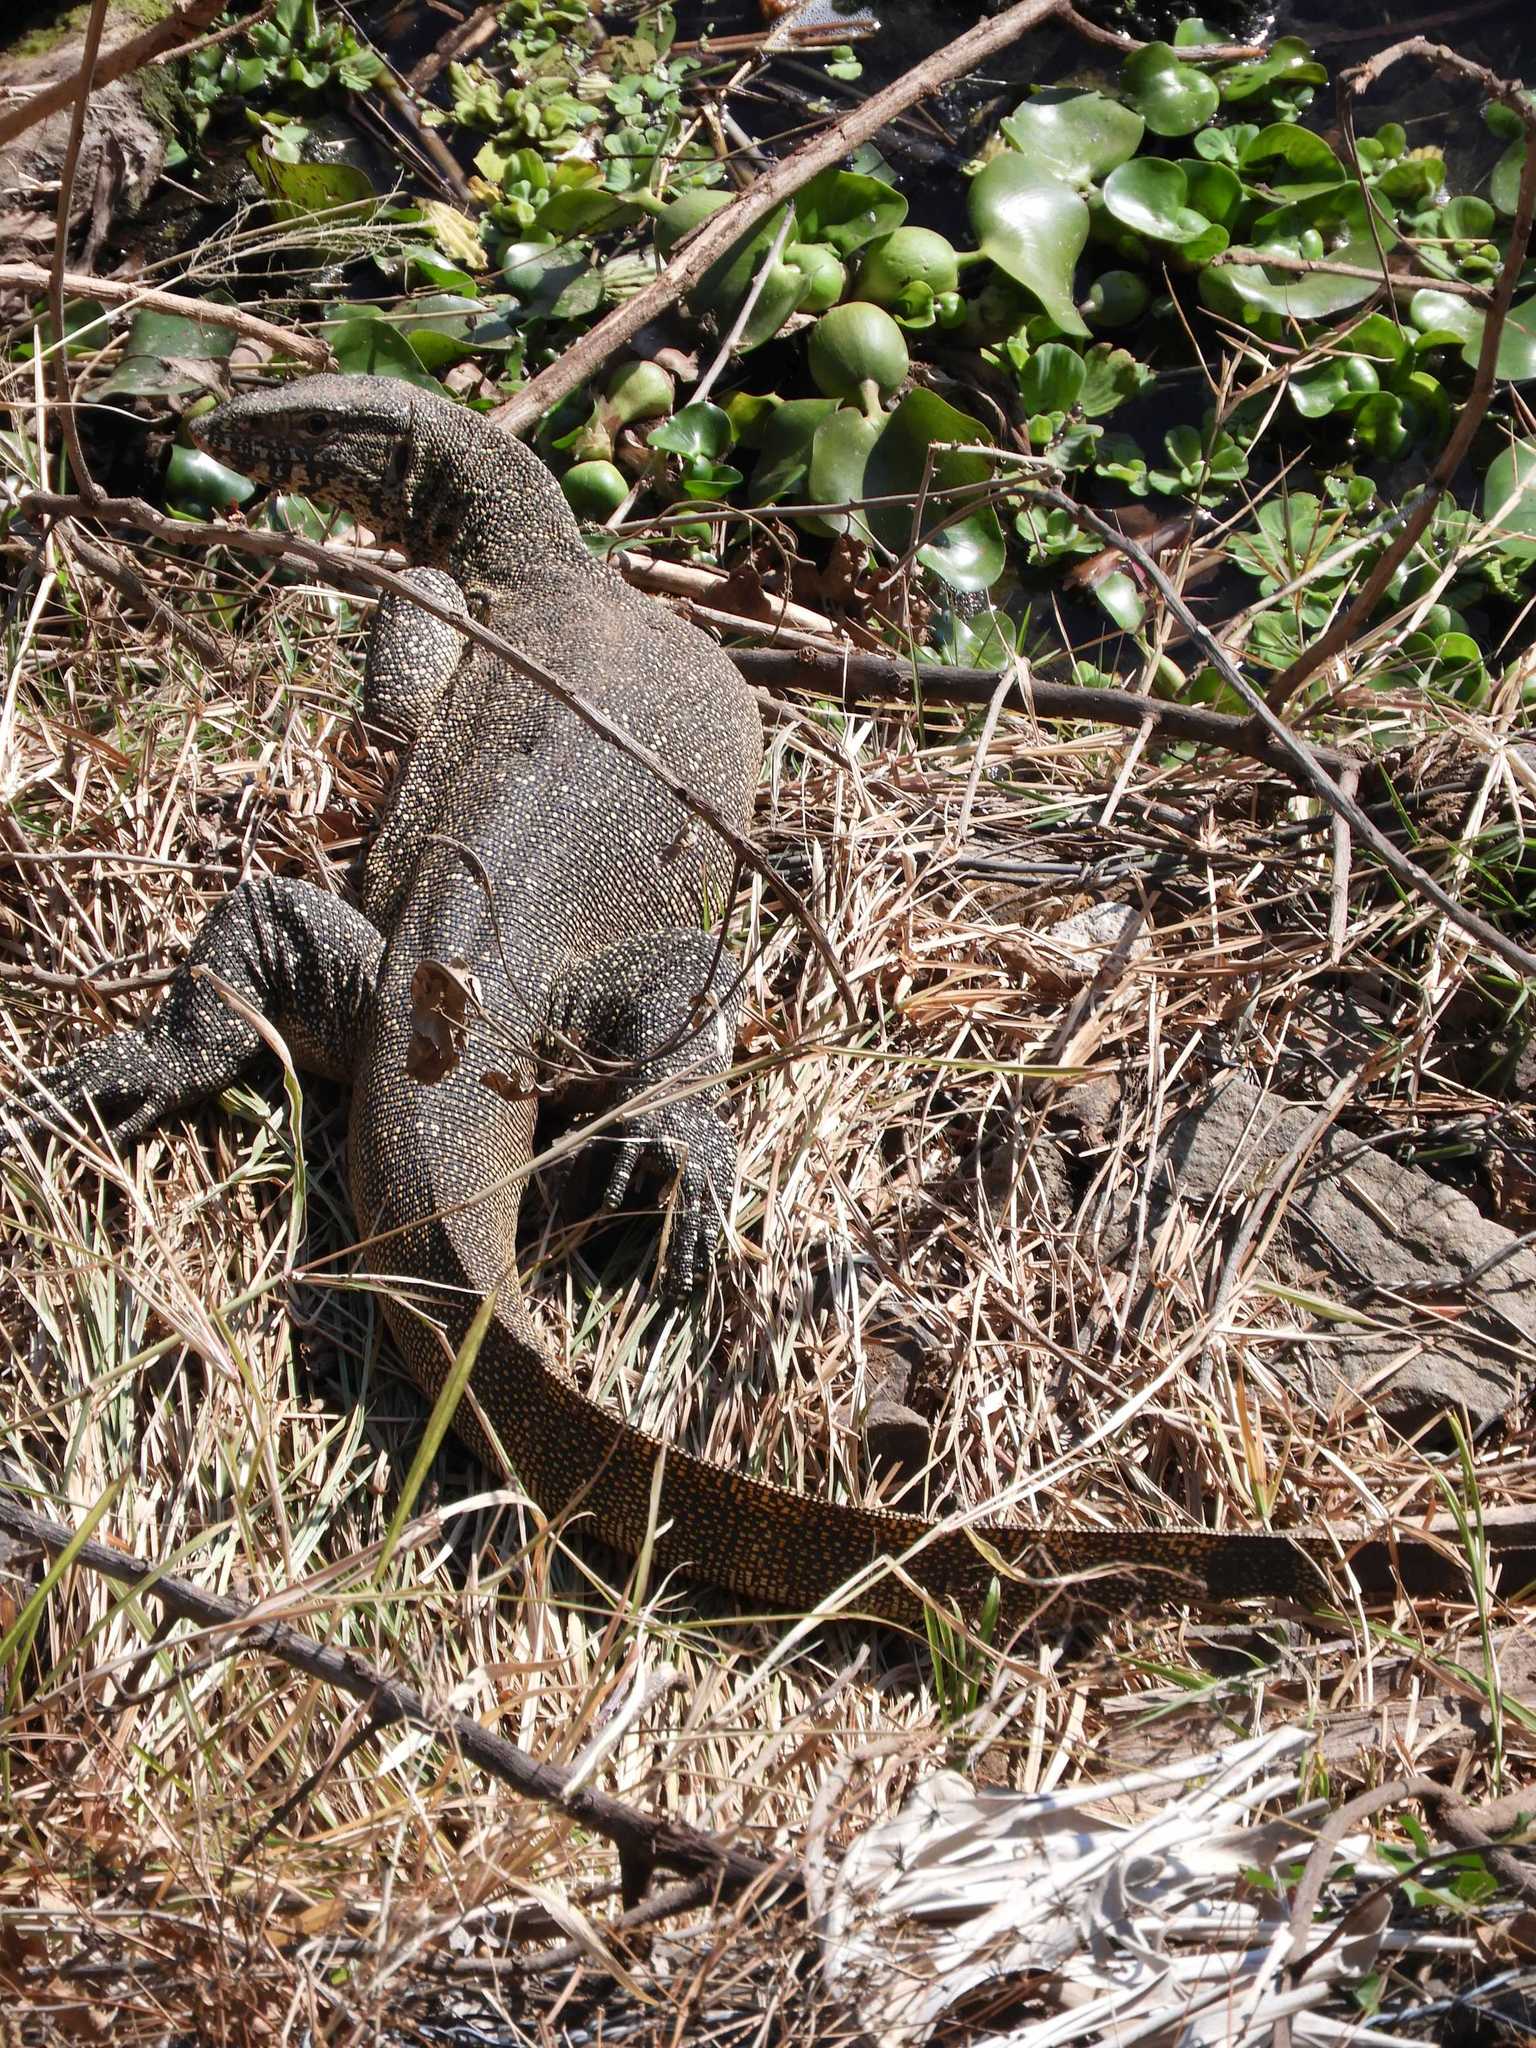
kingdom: Animalia
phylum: Chordata
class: Squamata
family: Varanidae
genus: Varanus
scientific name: Varanus niloticus
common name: Nile monitor
